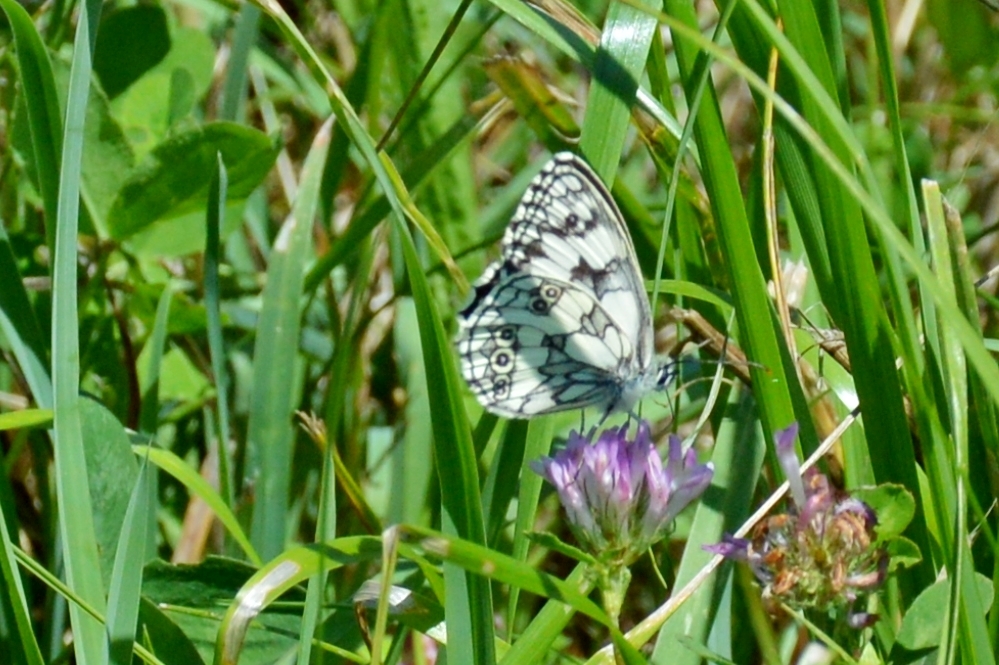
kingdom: Animalia
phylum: Arthropoda
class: Insecta
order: Lepidoptera
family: Nymphalidae
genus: Melanargia
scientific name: Melanargia galathea
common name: Marbled white
